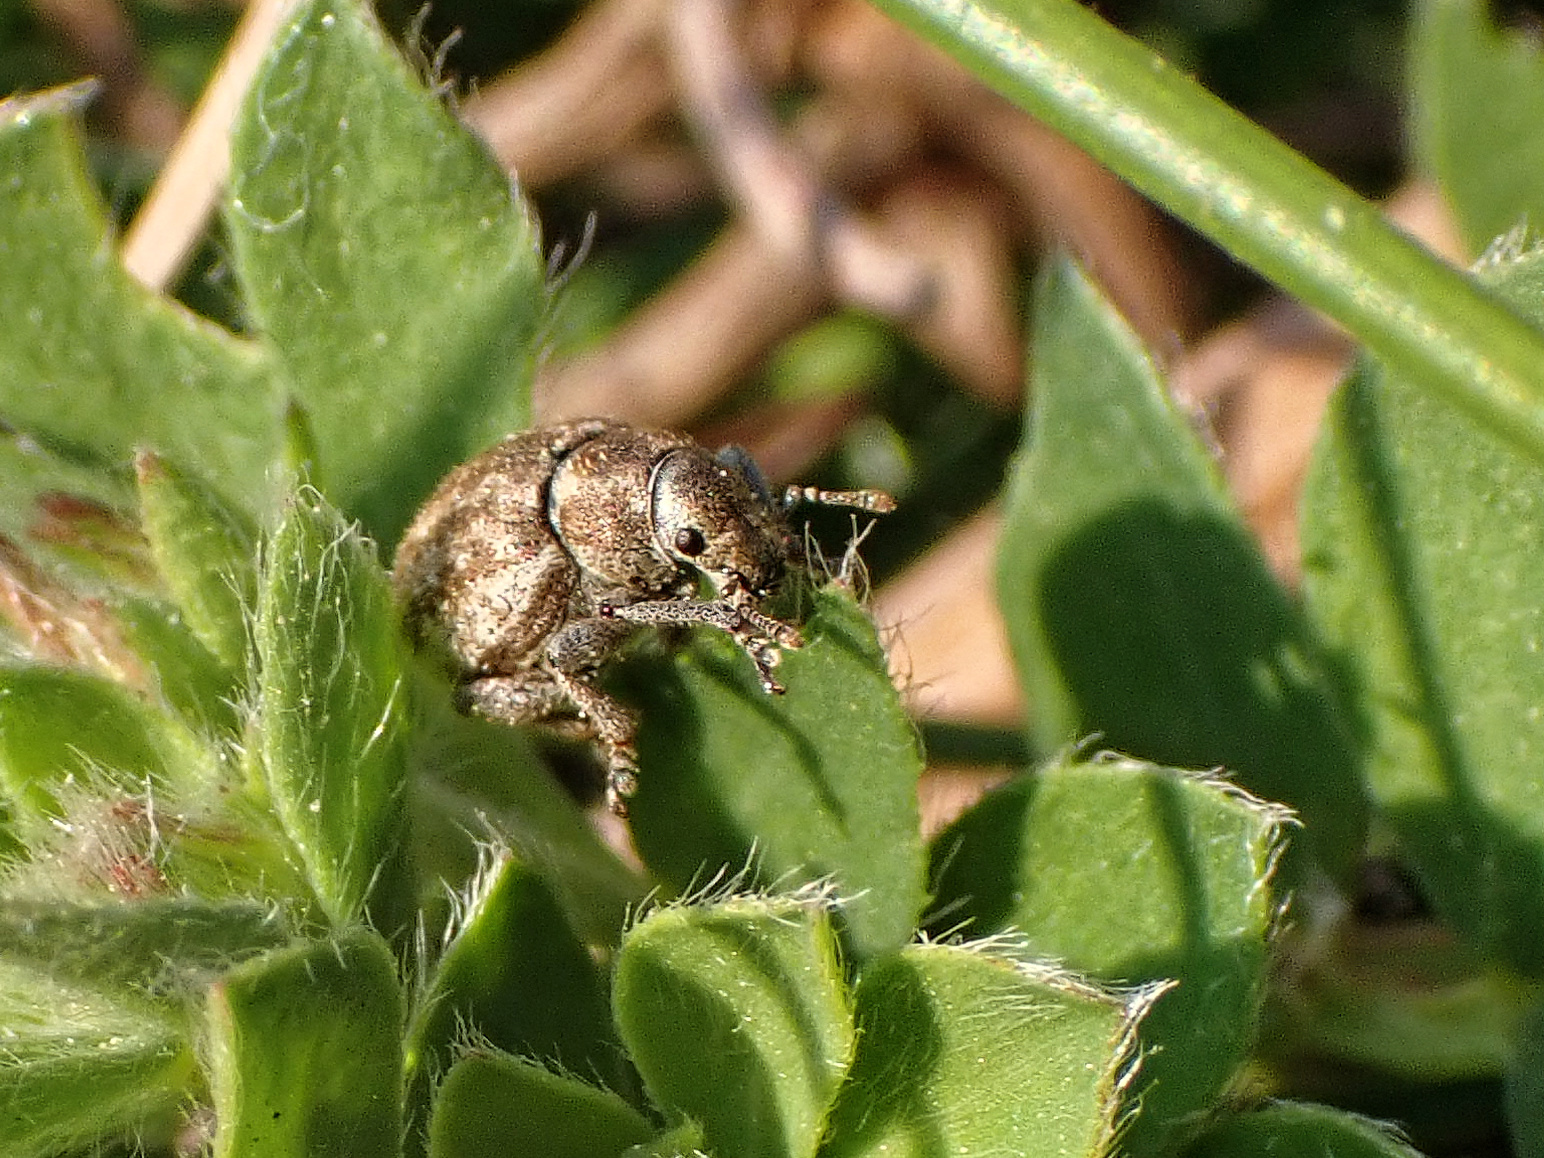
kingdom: Animalia
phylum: Arthropoda
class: Insecta
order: Coleoptera
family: Curculionidae
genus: Philopedon
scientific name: Philopedon plagiatum
